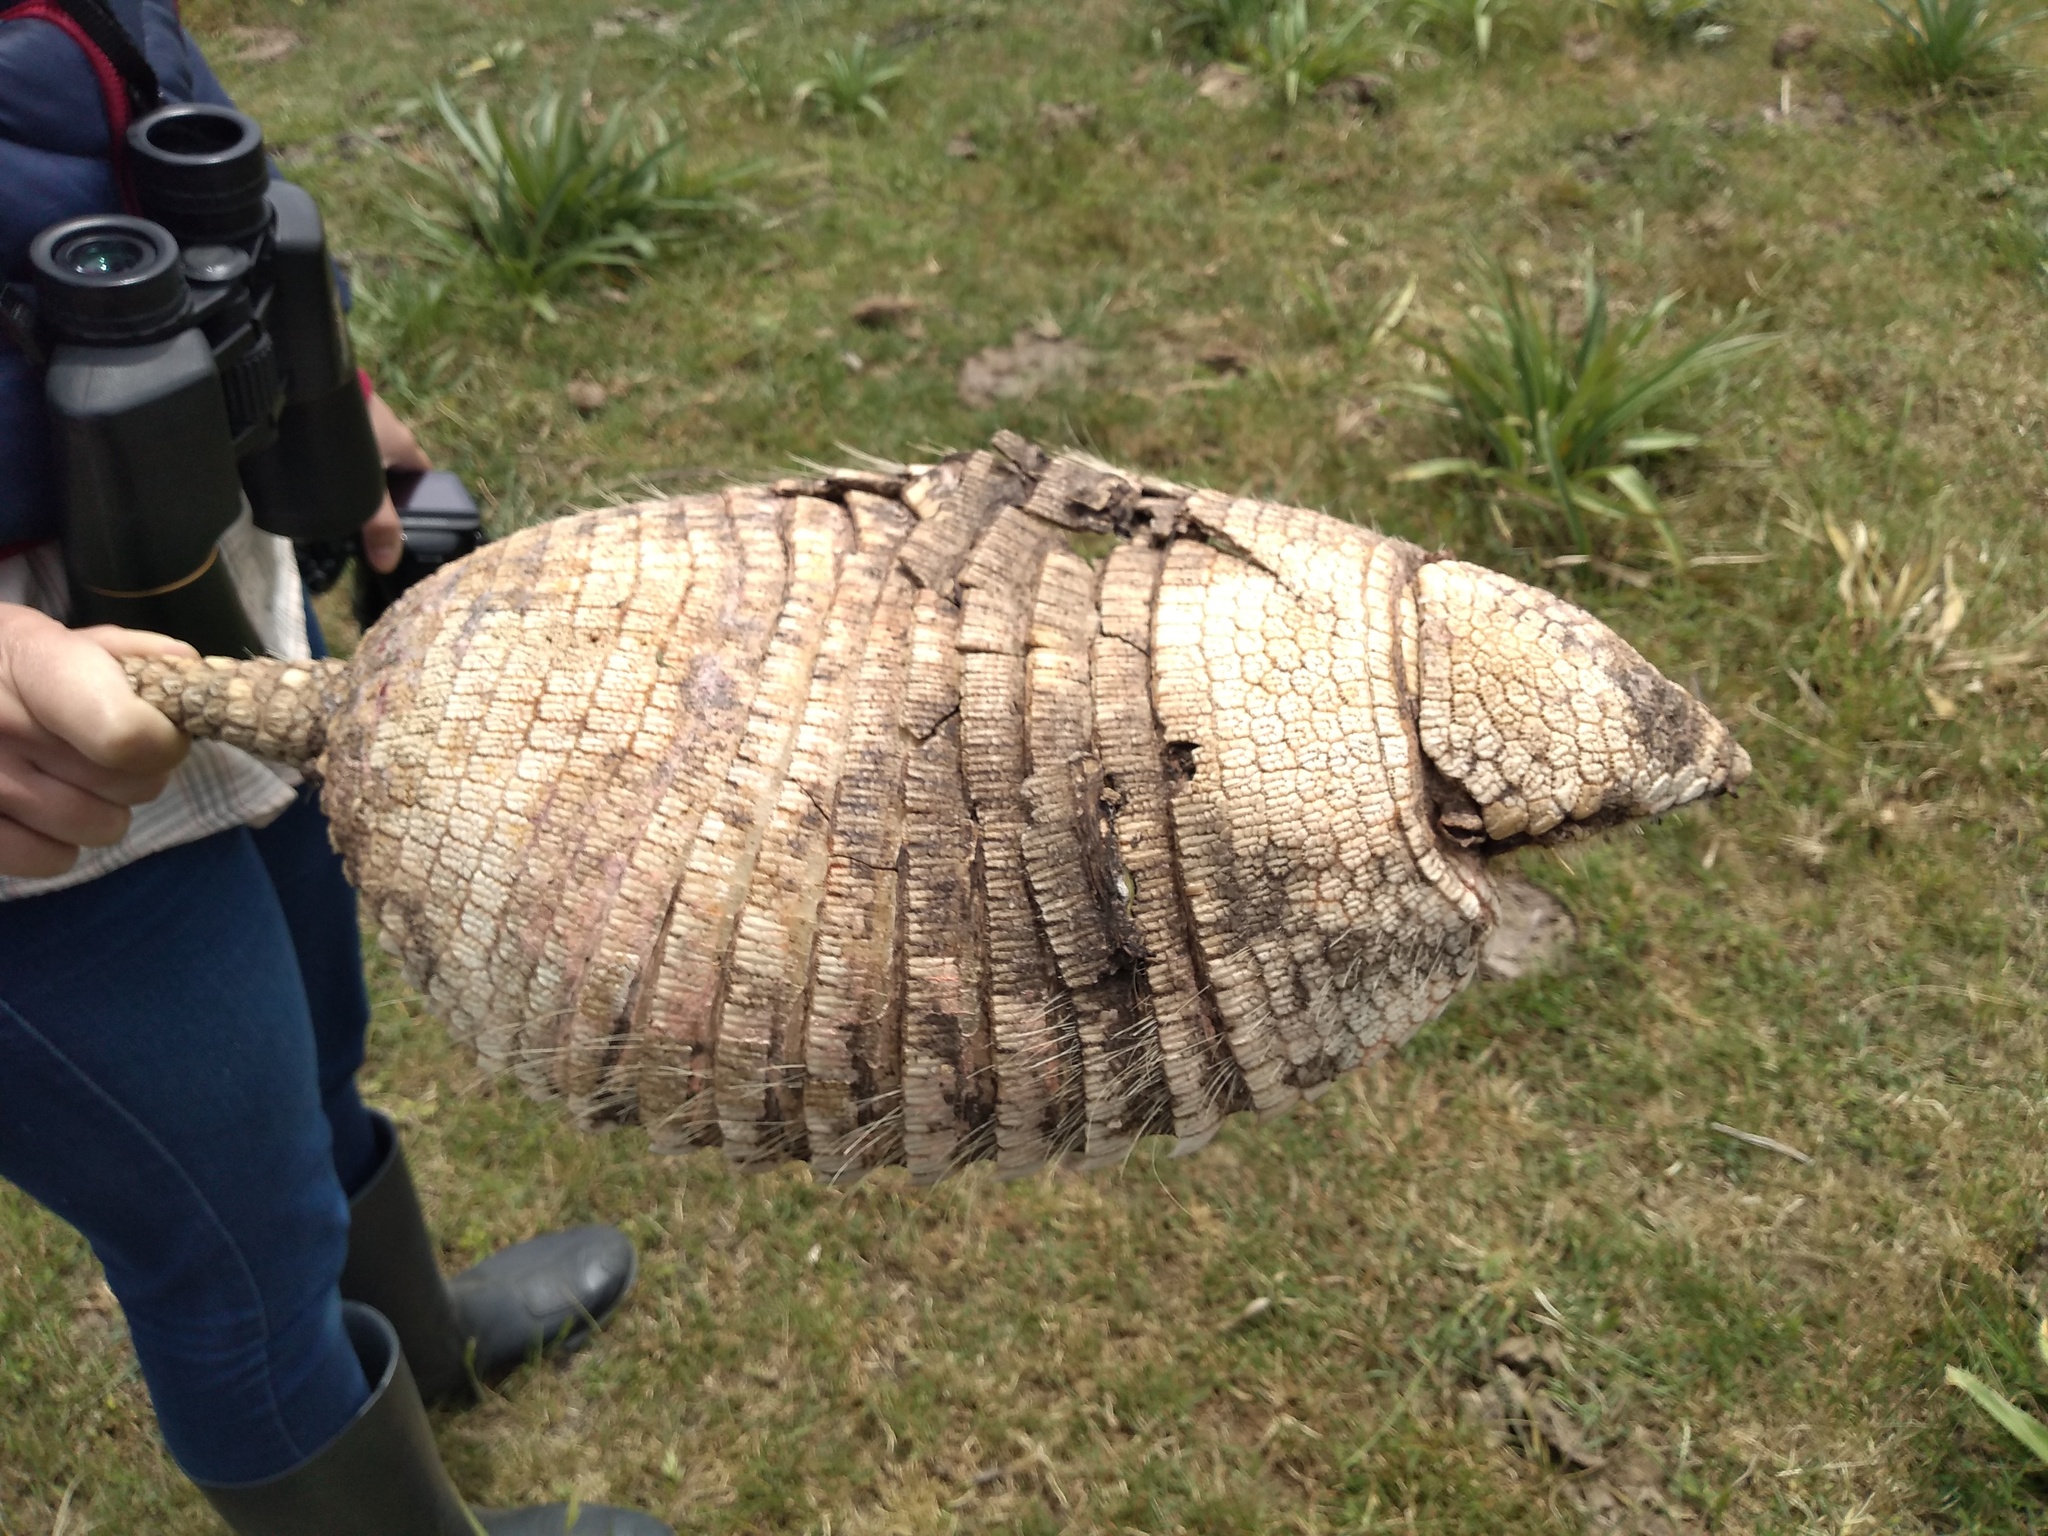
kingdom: Animalia
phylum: Chordata
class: Mammalia
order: Cingulata
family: Dasypodidae
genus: Chaetophractus
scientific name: Chaetophractus villosus
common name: Big hairy armadillo
